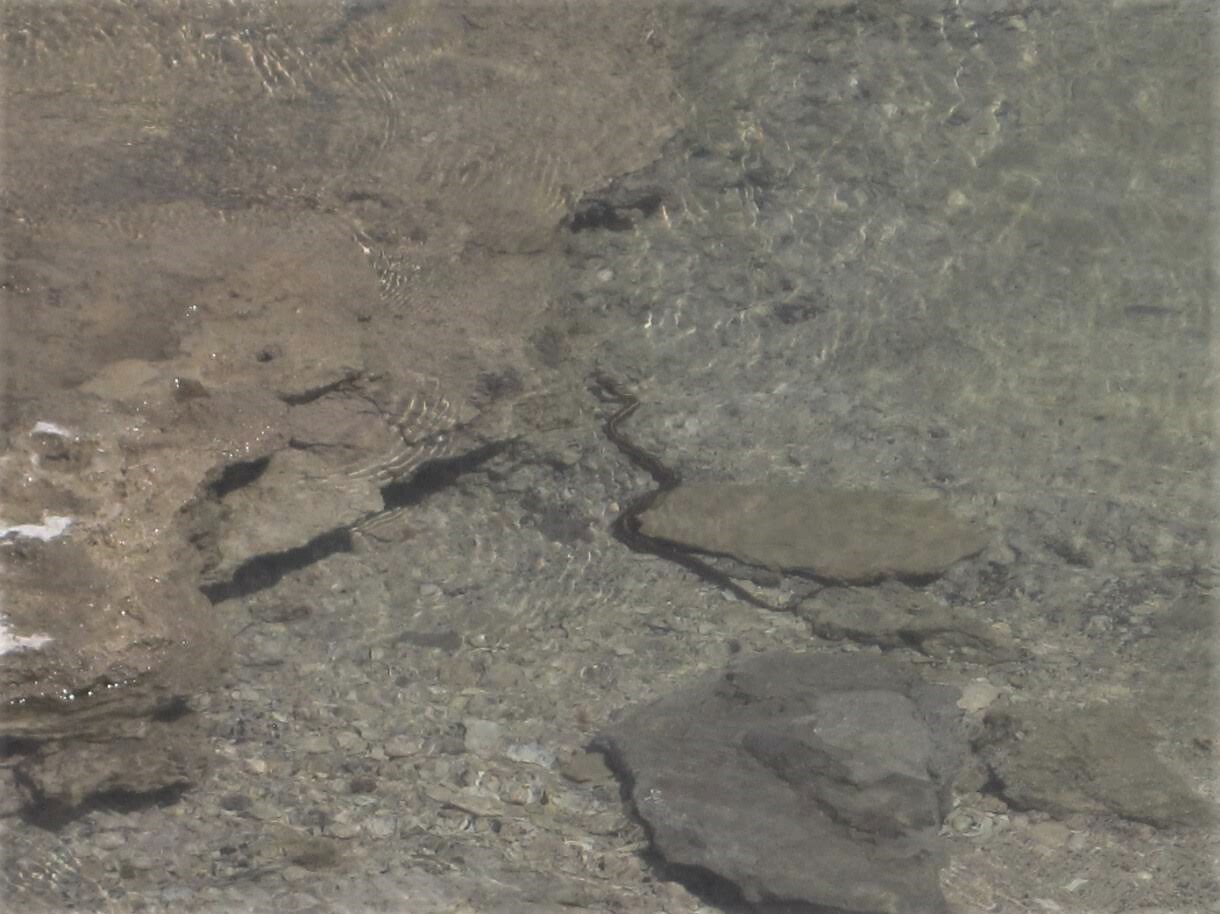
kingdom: Animalia
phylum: Chordata
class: Squamata
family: Colubridae
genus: Thamnophis
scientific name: Thamnophis elegans
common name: Western terrestrial garter snake
